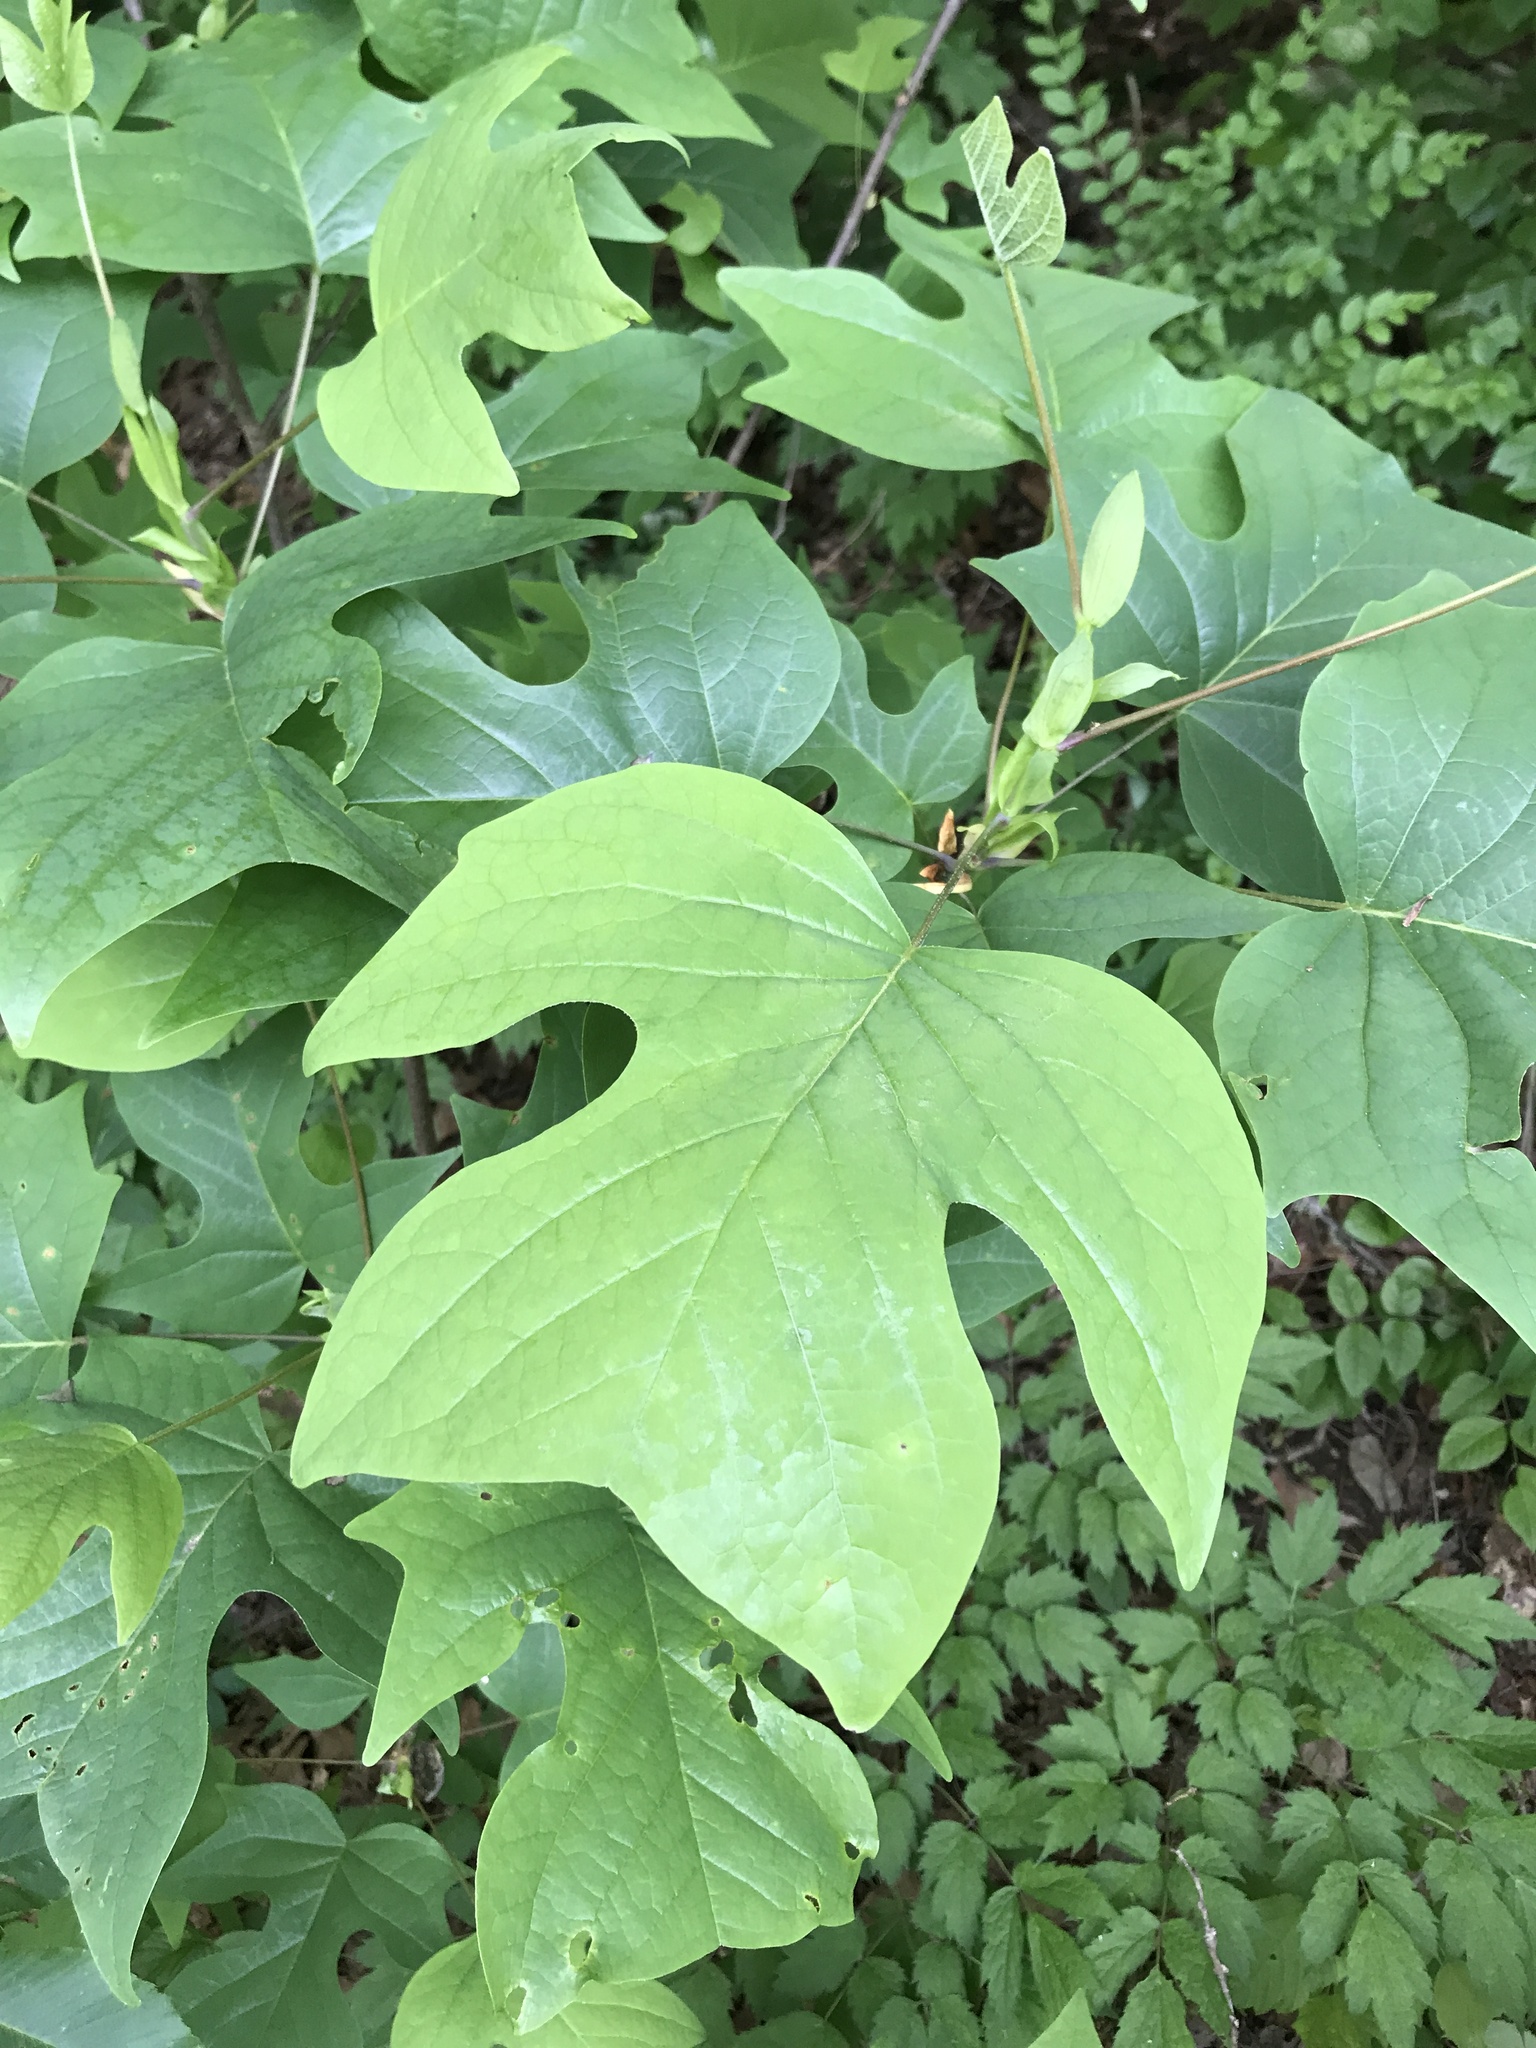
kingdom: Plantae
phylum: Tracheophyta
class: Magnoliopsida
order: Magnoliales
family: Magnoliaceae
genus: Liriodendron
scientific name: Liriodendron tulipifera
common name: Tulip tree
